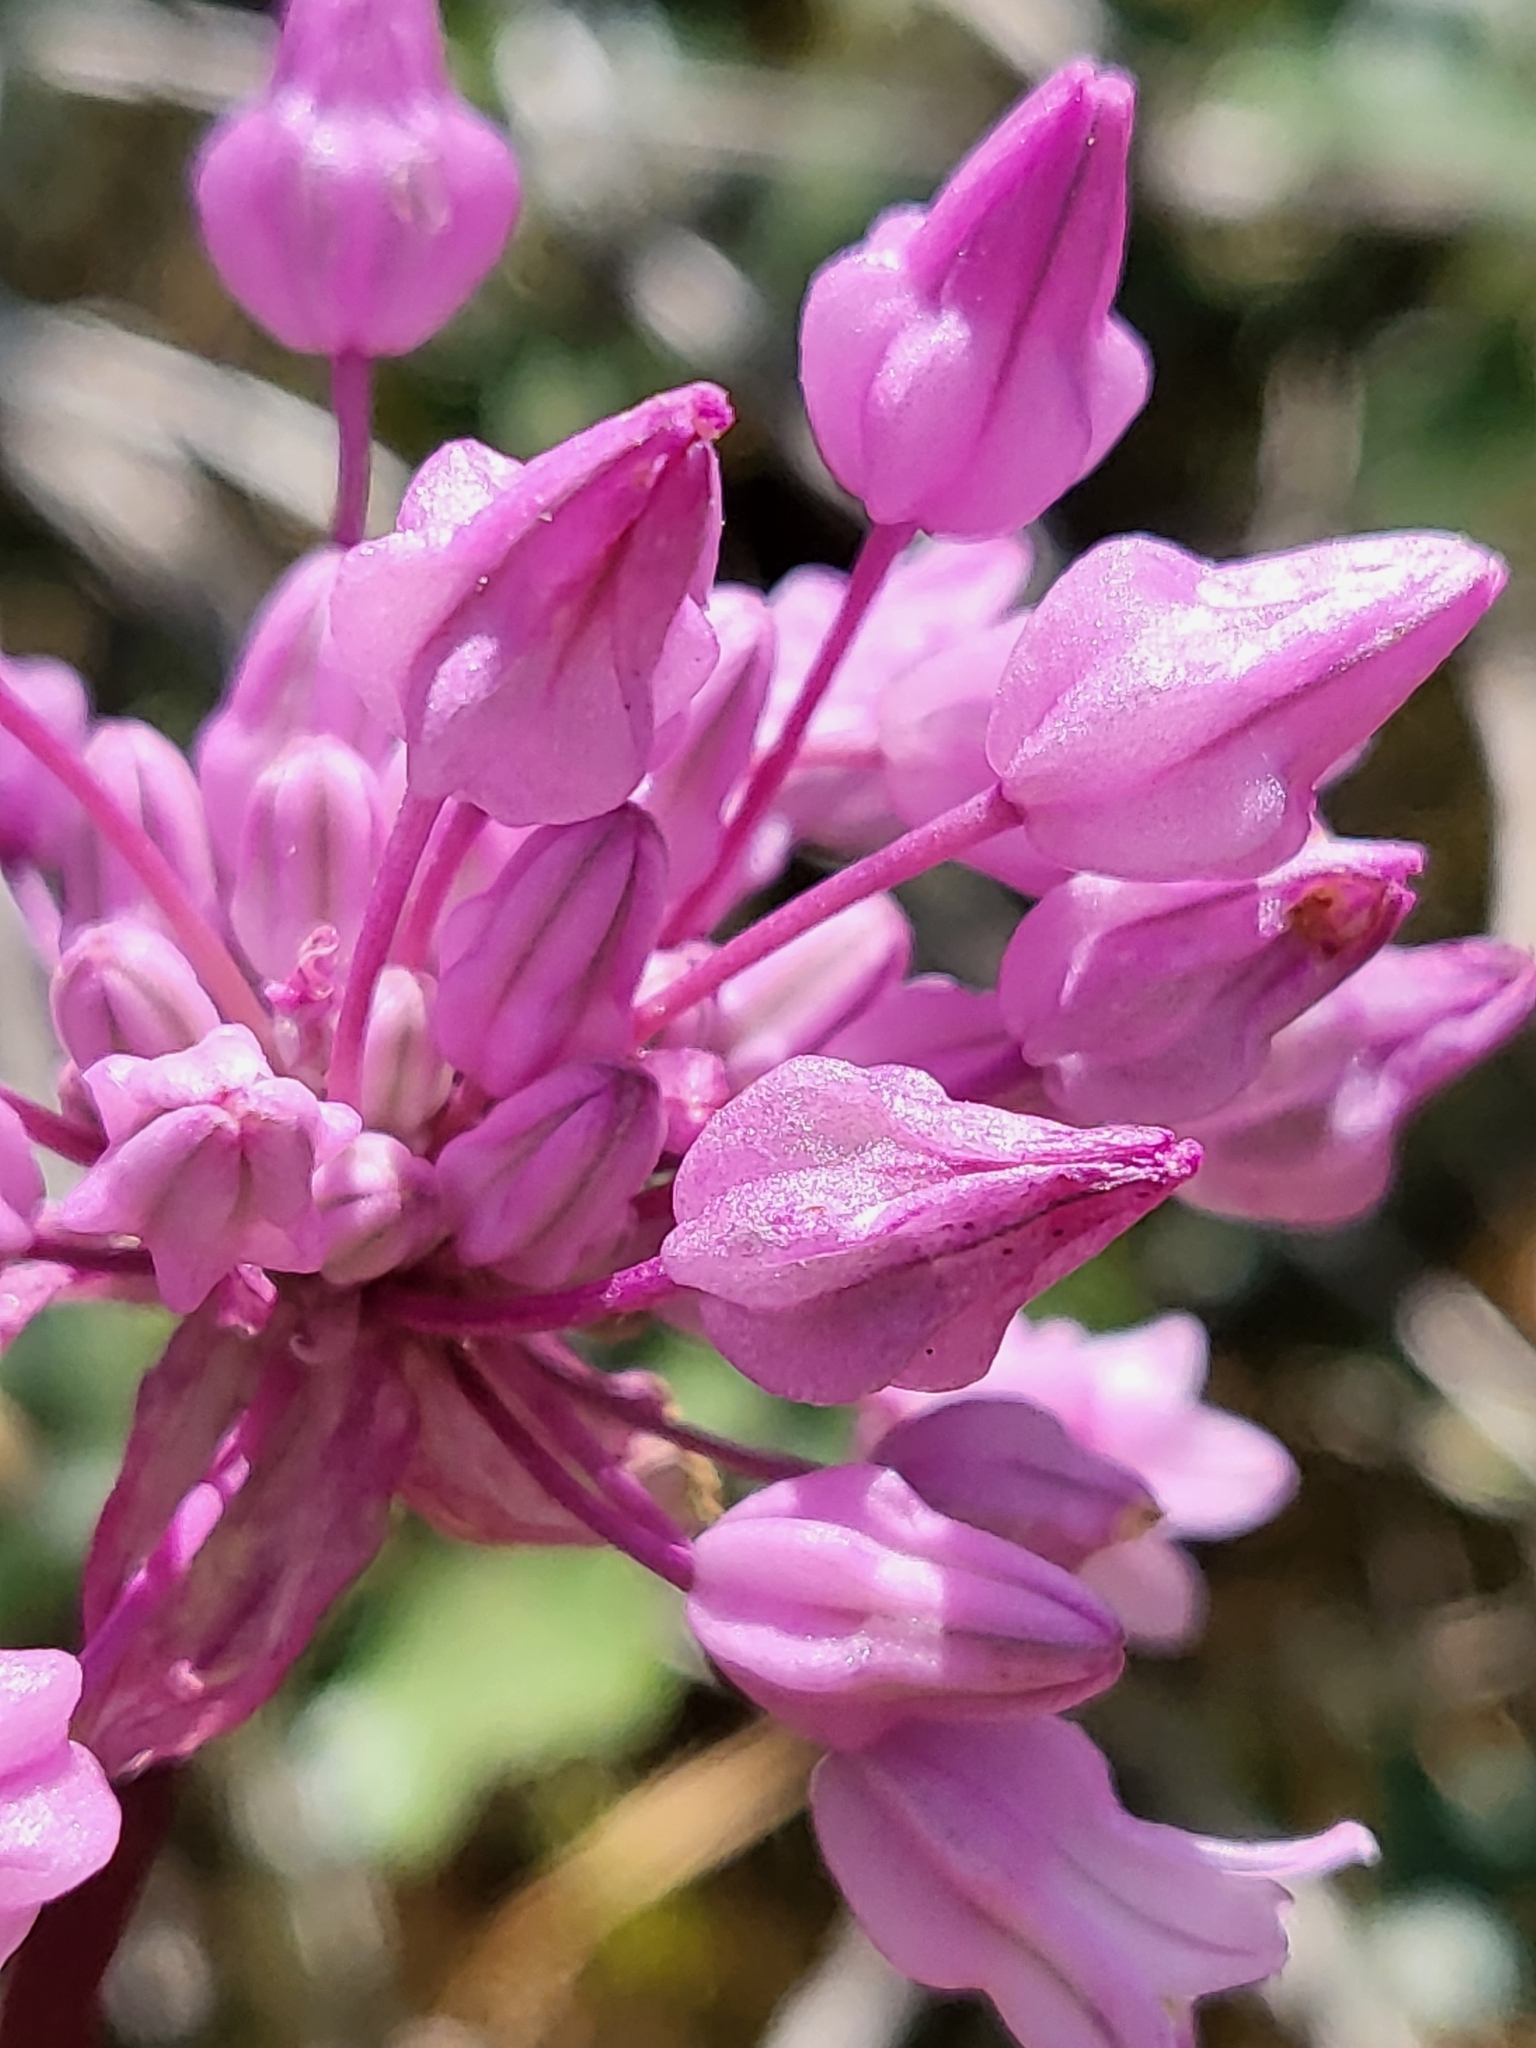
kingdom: Plantae
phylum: Tracheophyta
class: Liliopsida
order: Asparagales
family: Asparagaceae
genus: Dichelostemma
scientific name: Dichelostemma volubile
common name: Trining brodiaea
